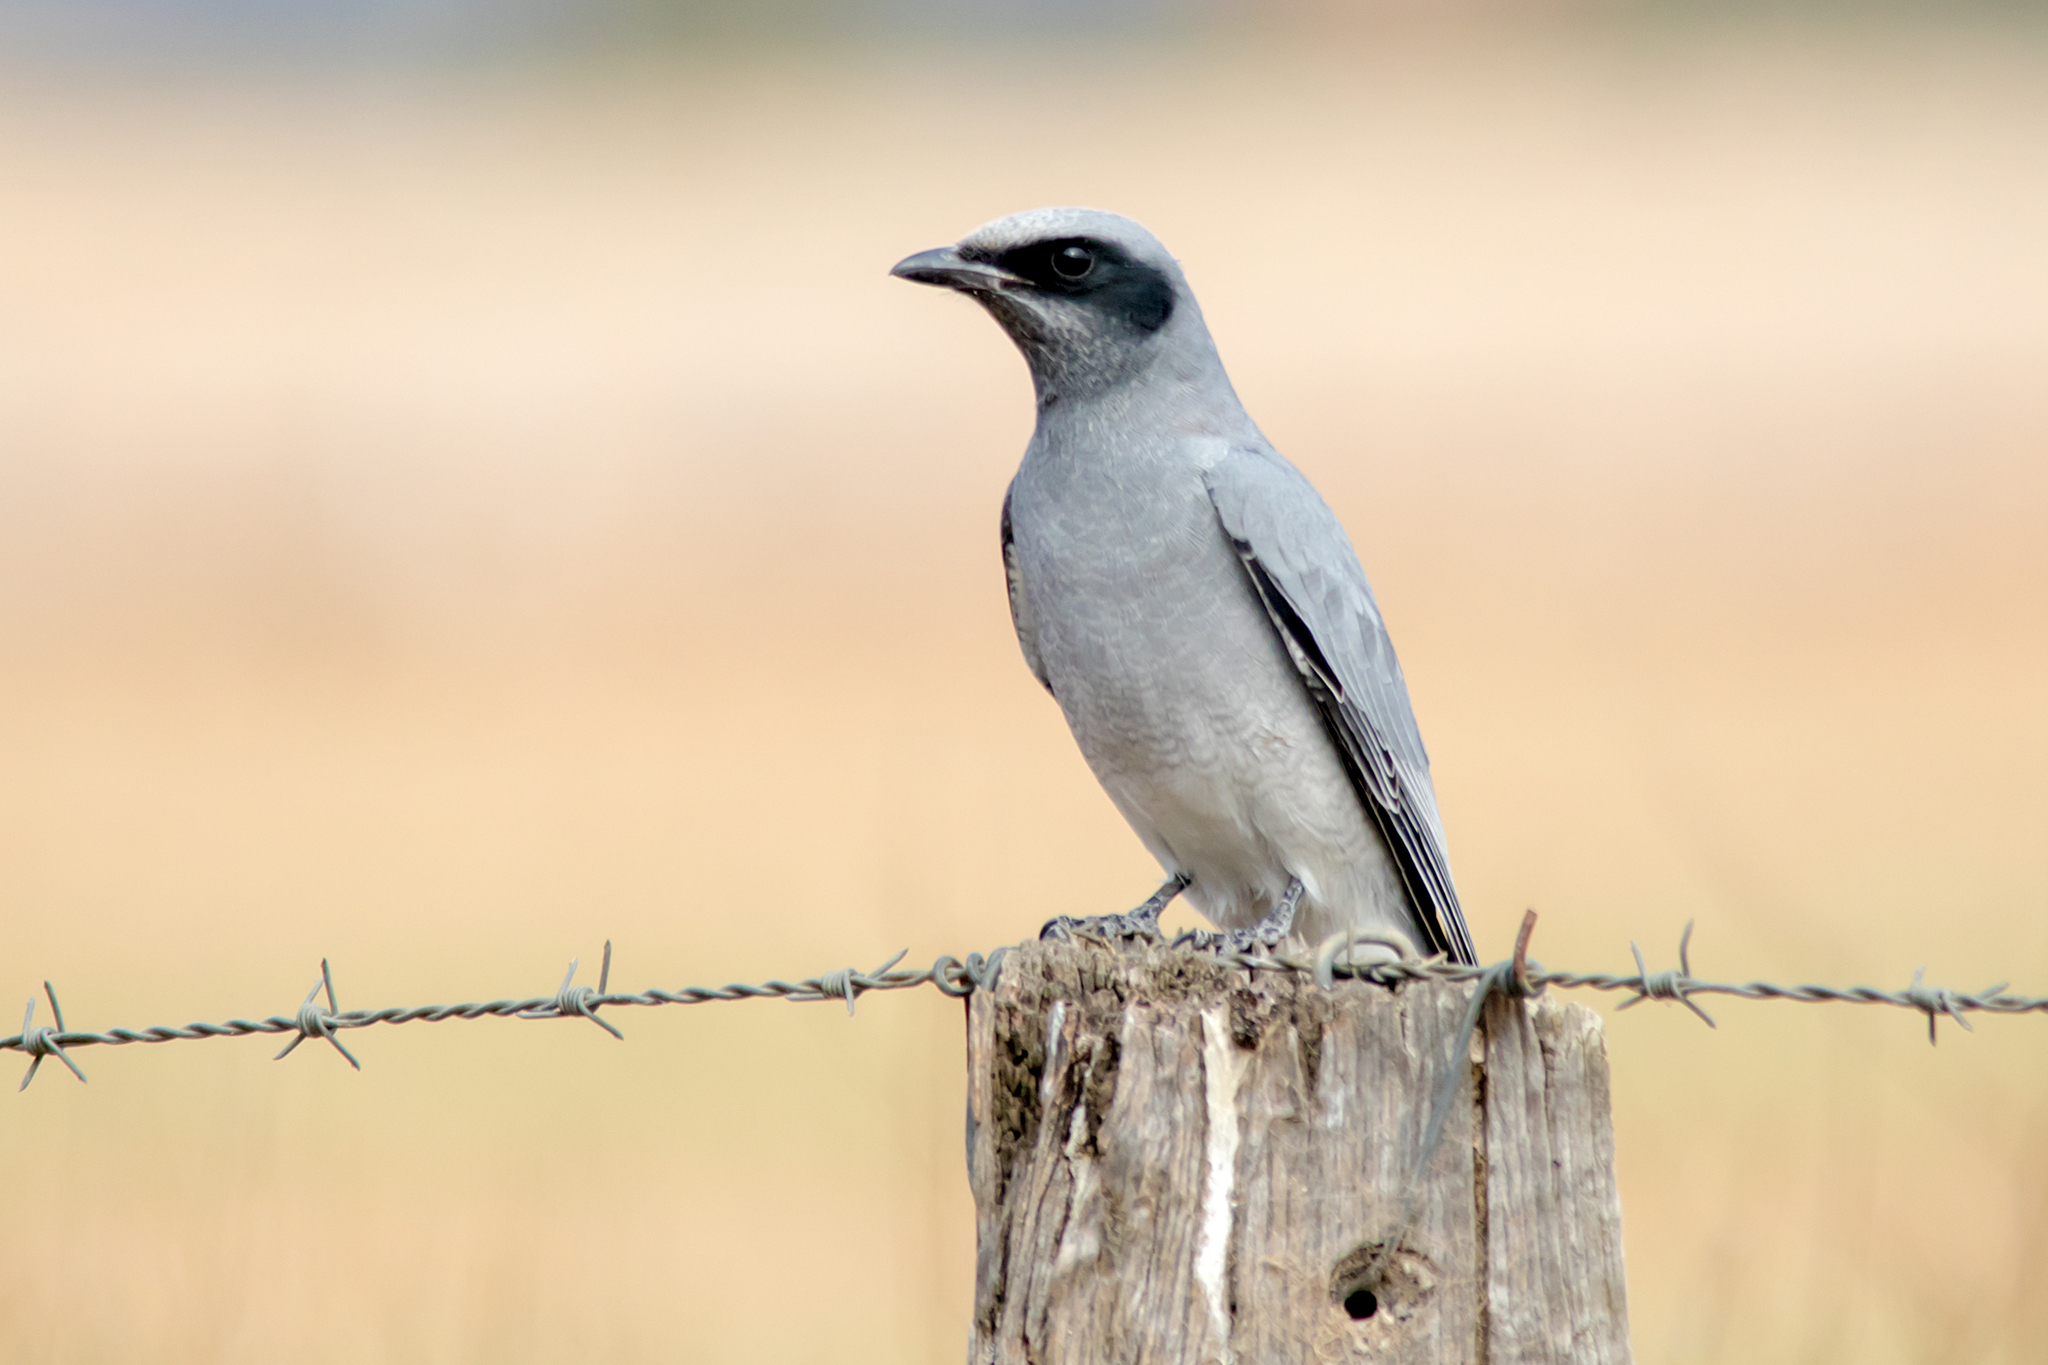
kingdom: Animalia
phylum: Chordata
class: Aves
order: Passeriformes
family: Campephagidae
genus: Coracina
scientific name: Coracina novaehollandiae
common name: Black-faced cuckooshrike
